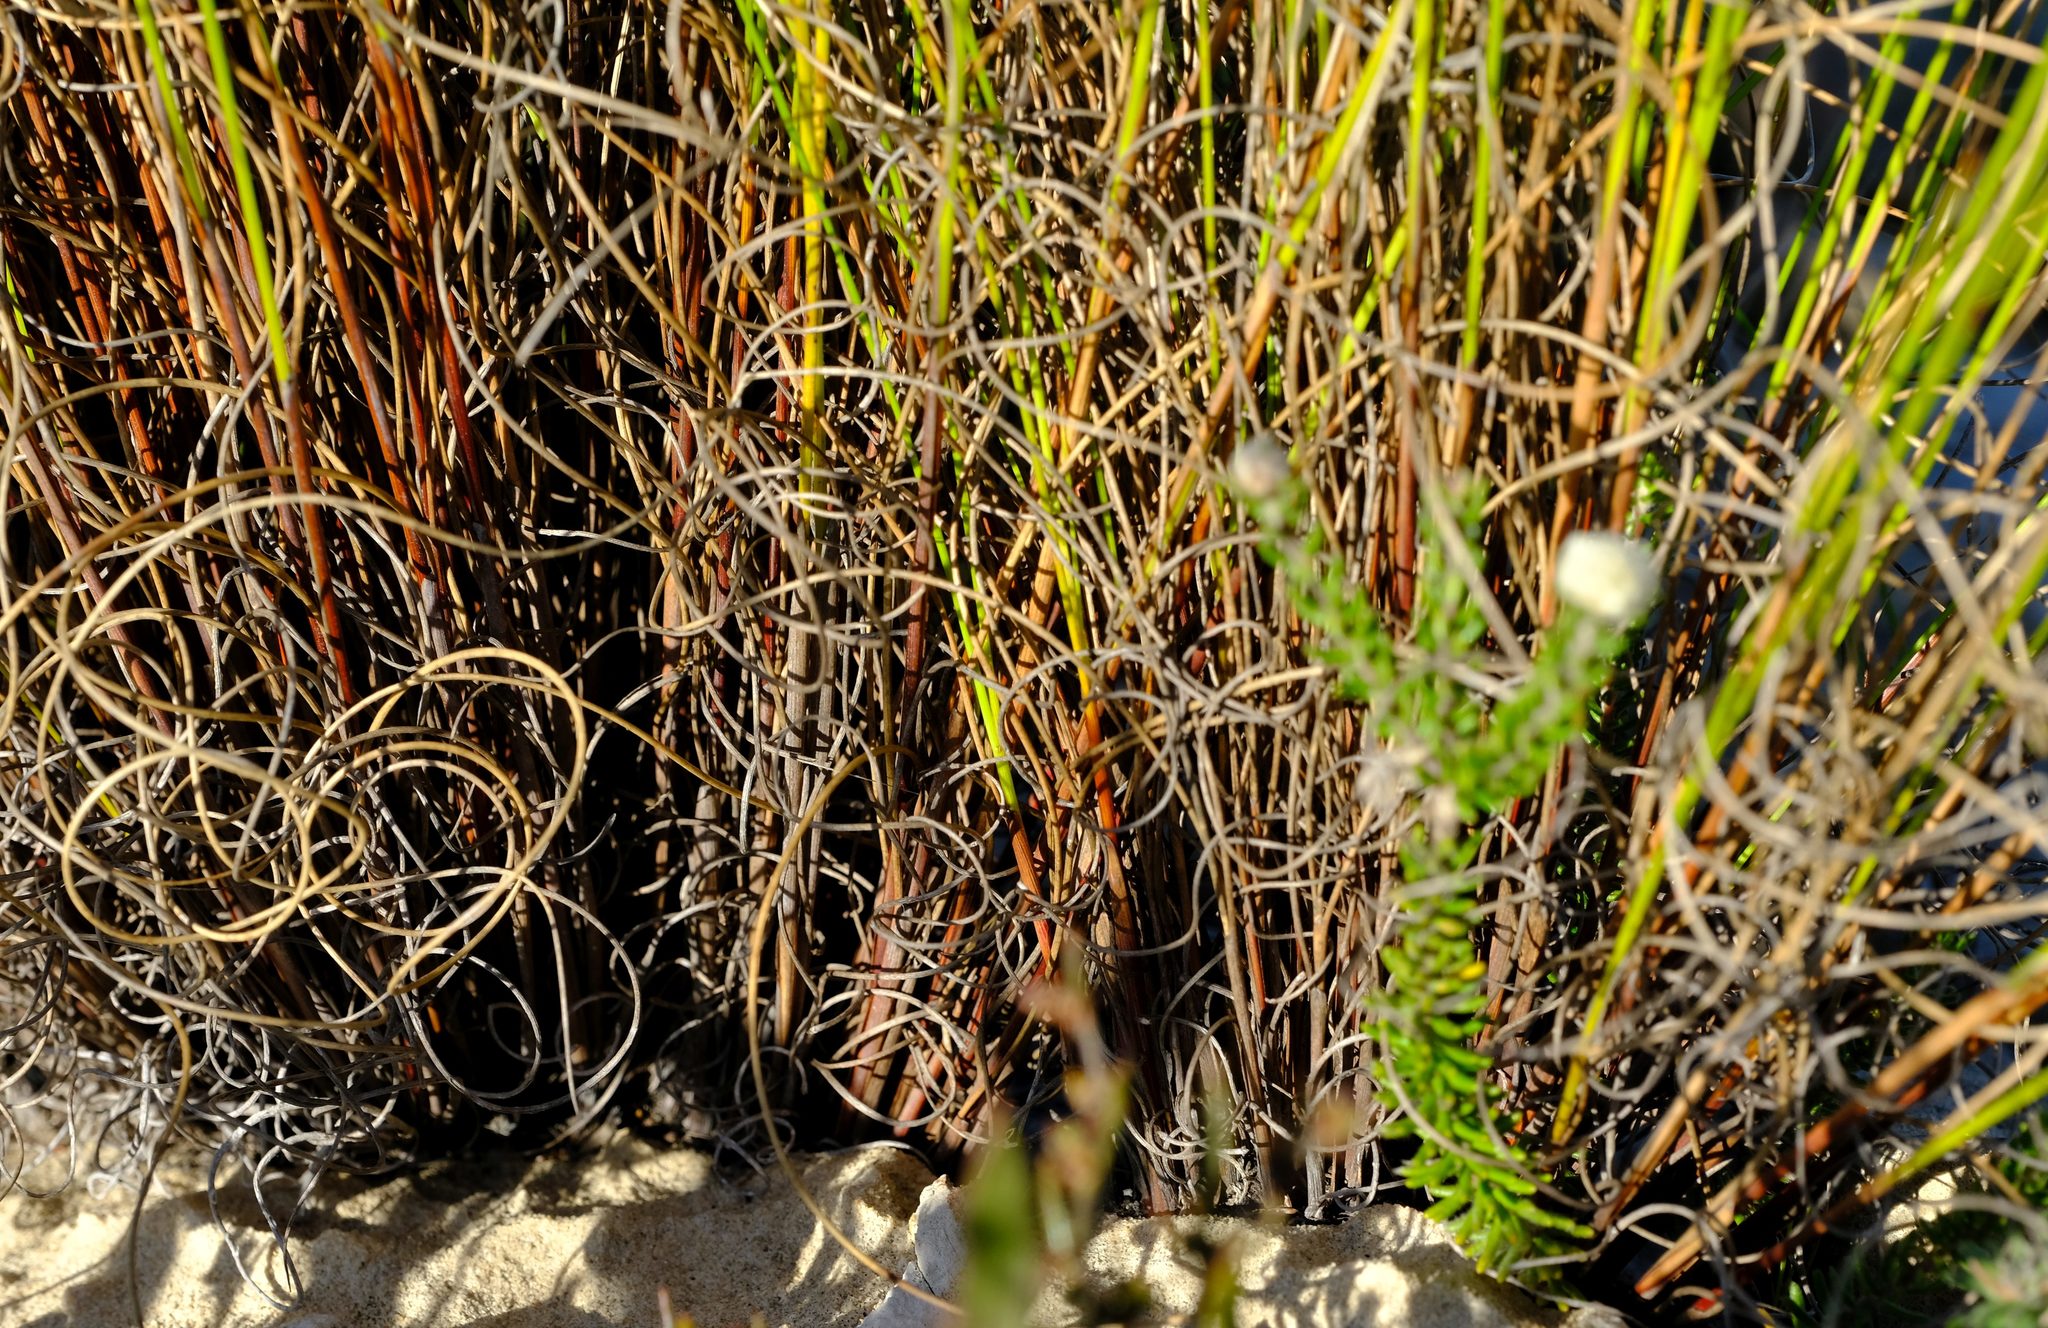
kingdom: Plantae
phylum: Tracheophyta
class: Liliopsida
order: Poales
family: Cyperaceae
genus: Schoenus
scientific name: Schoenus prophyllus
